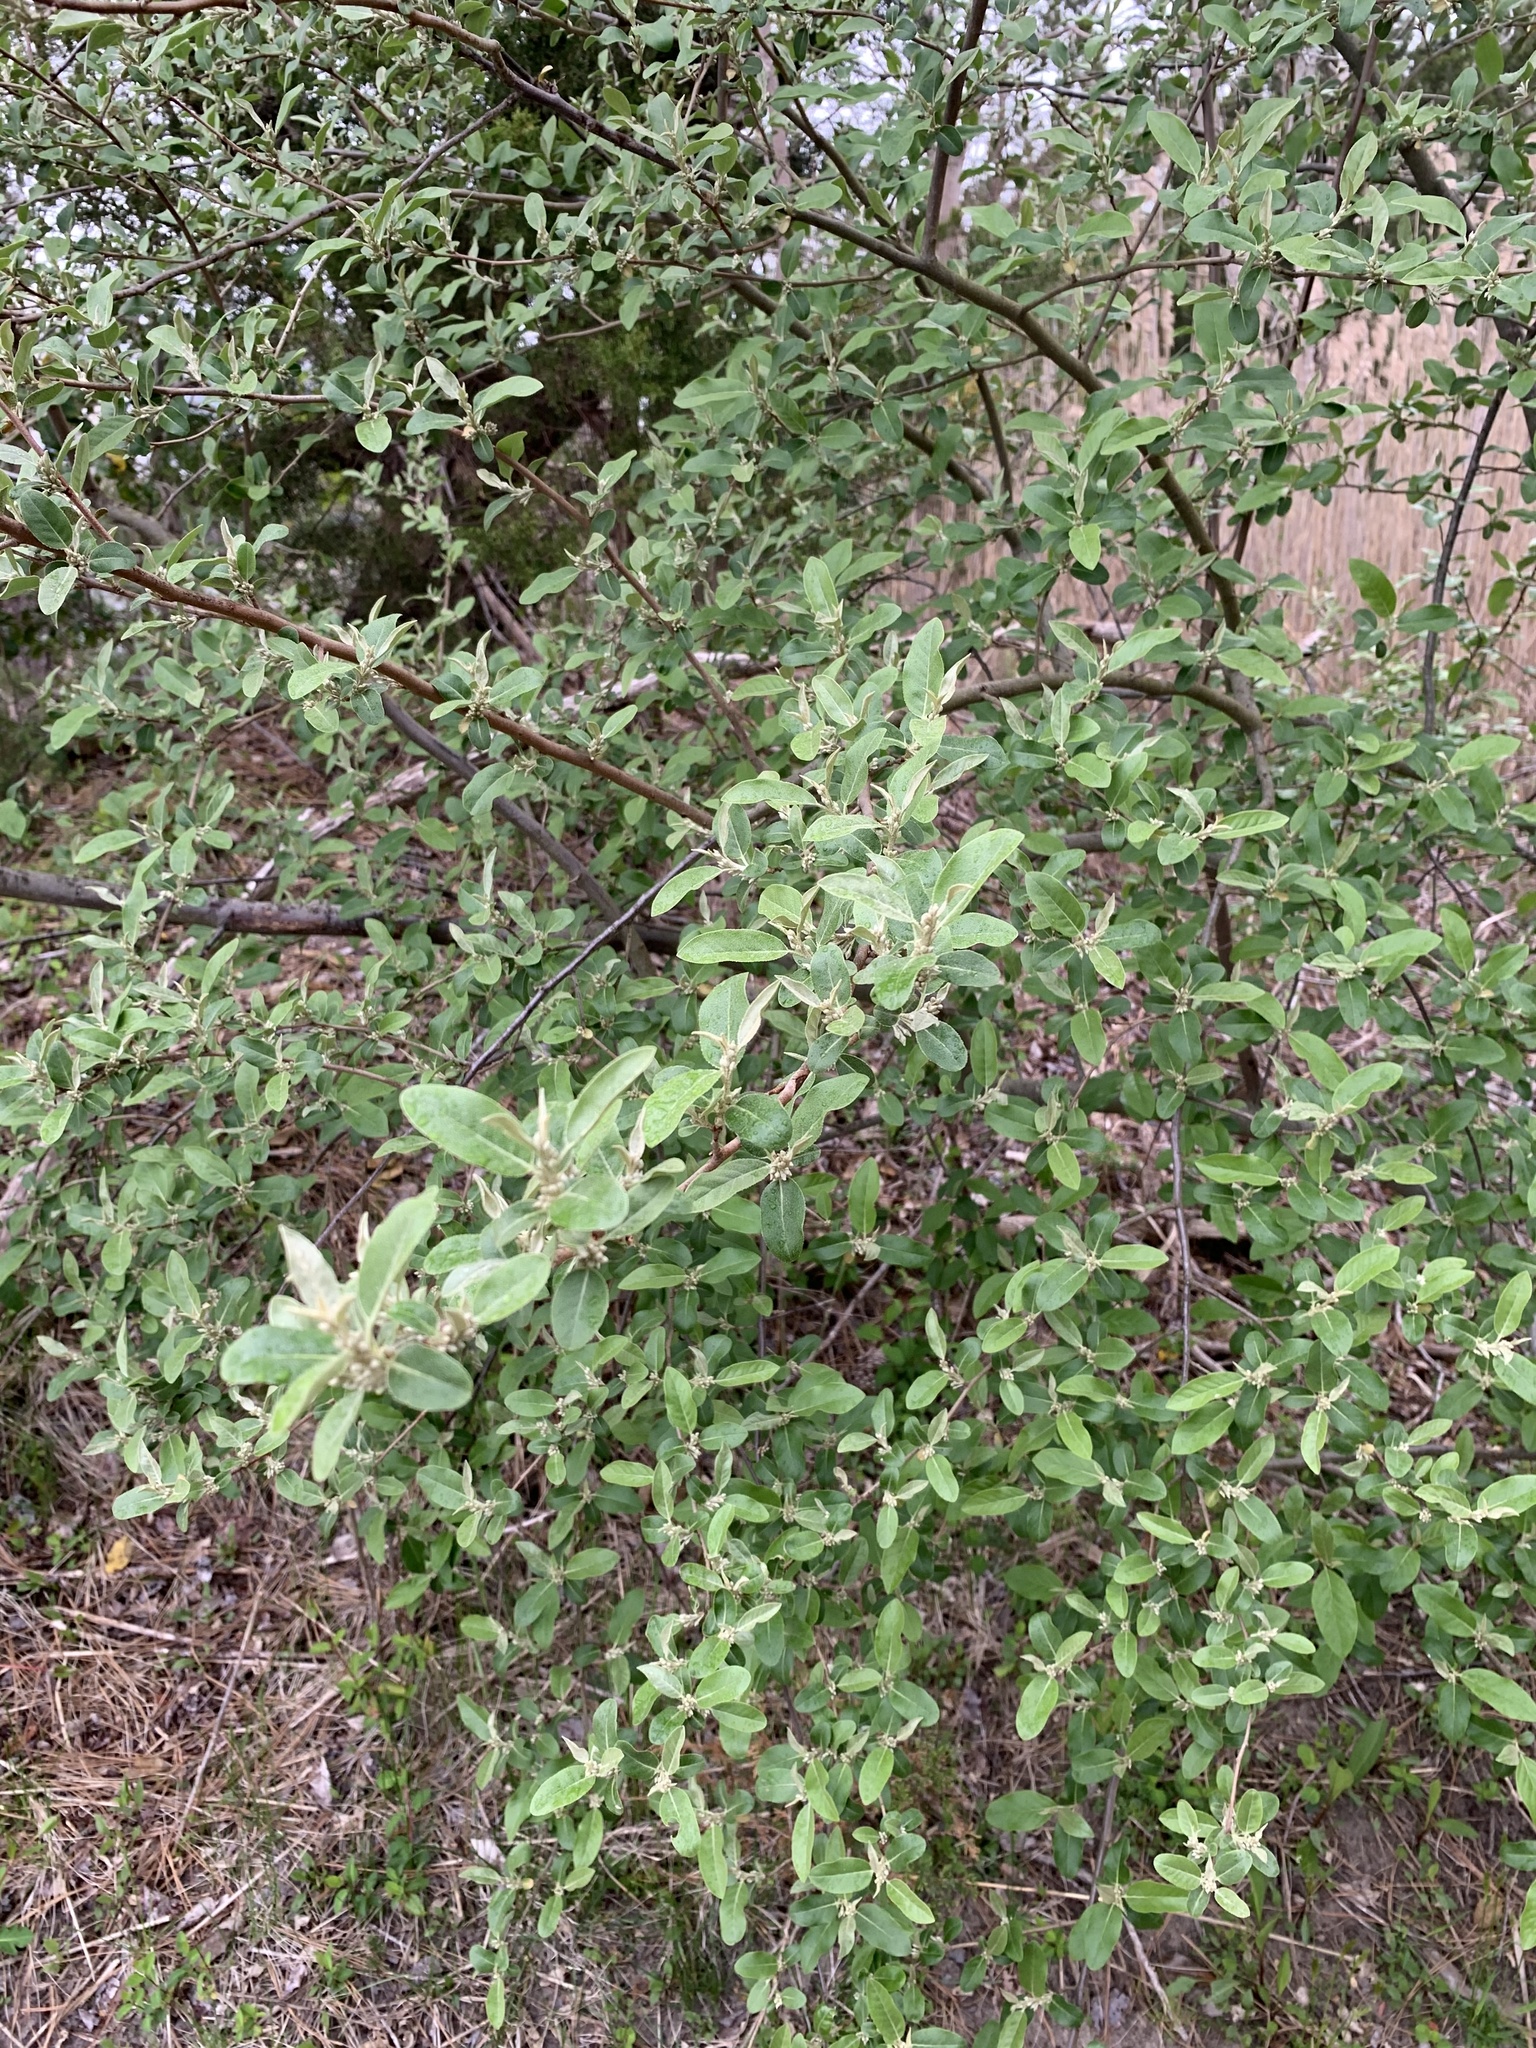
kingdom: Plantae
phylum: Tracheophyta
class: Magnoliopsida
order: Rosales
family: Elaeagnaceae
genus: Elaeagnus
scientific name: Elaeagnus umbellata
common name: Autumn olive
